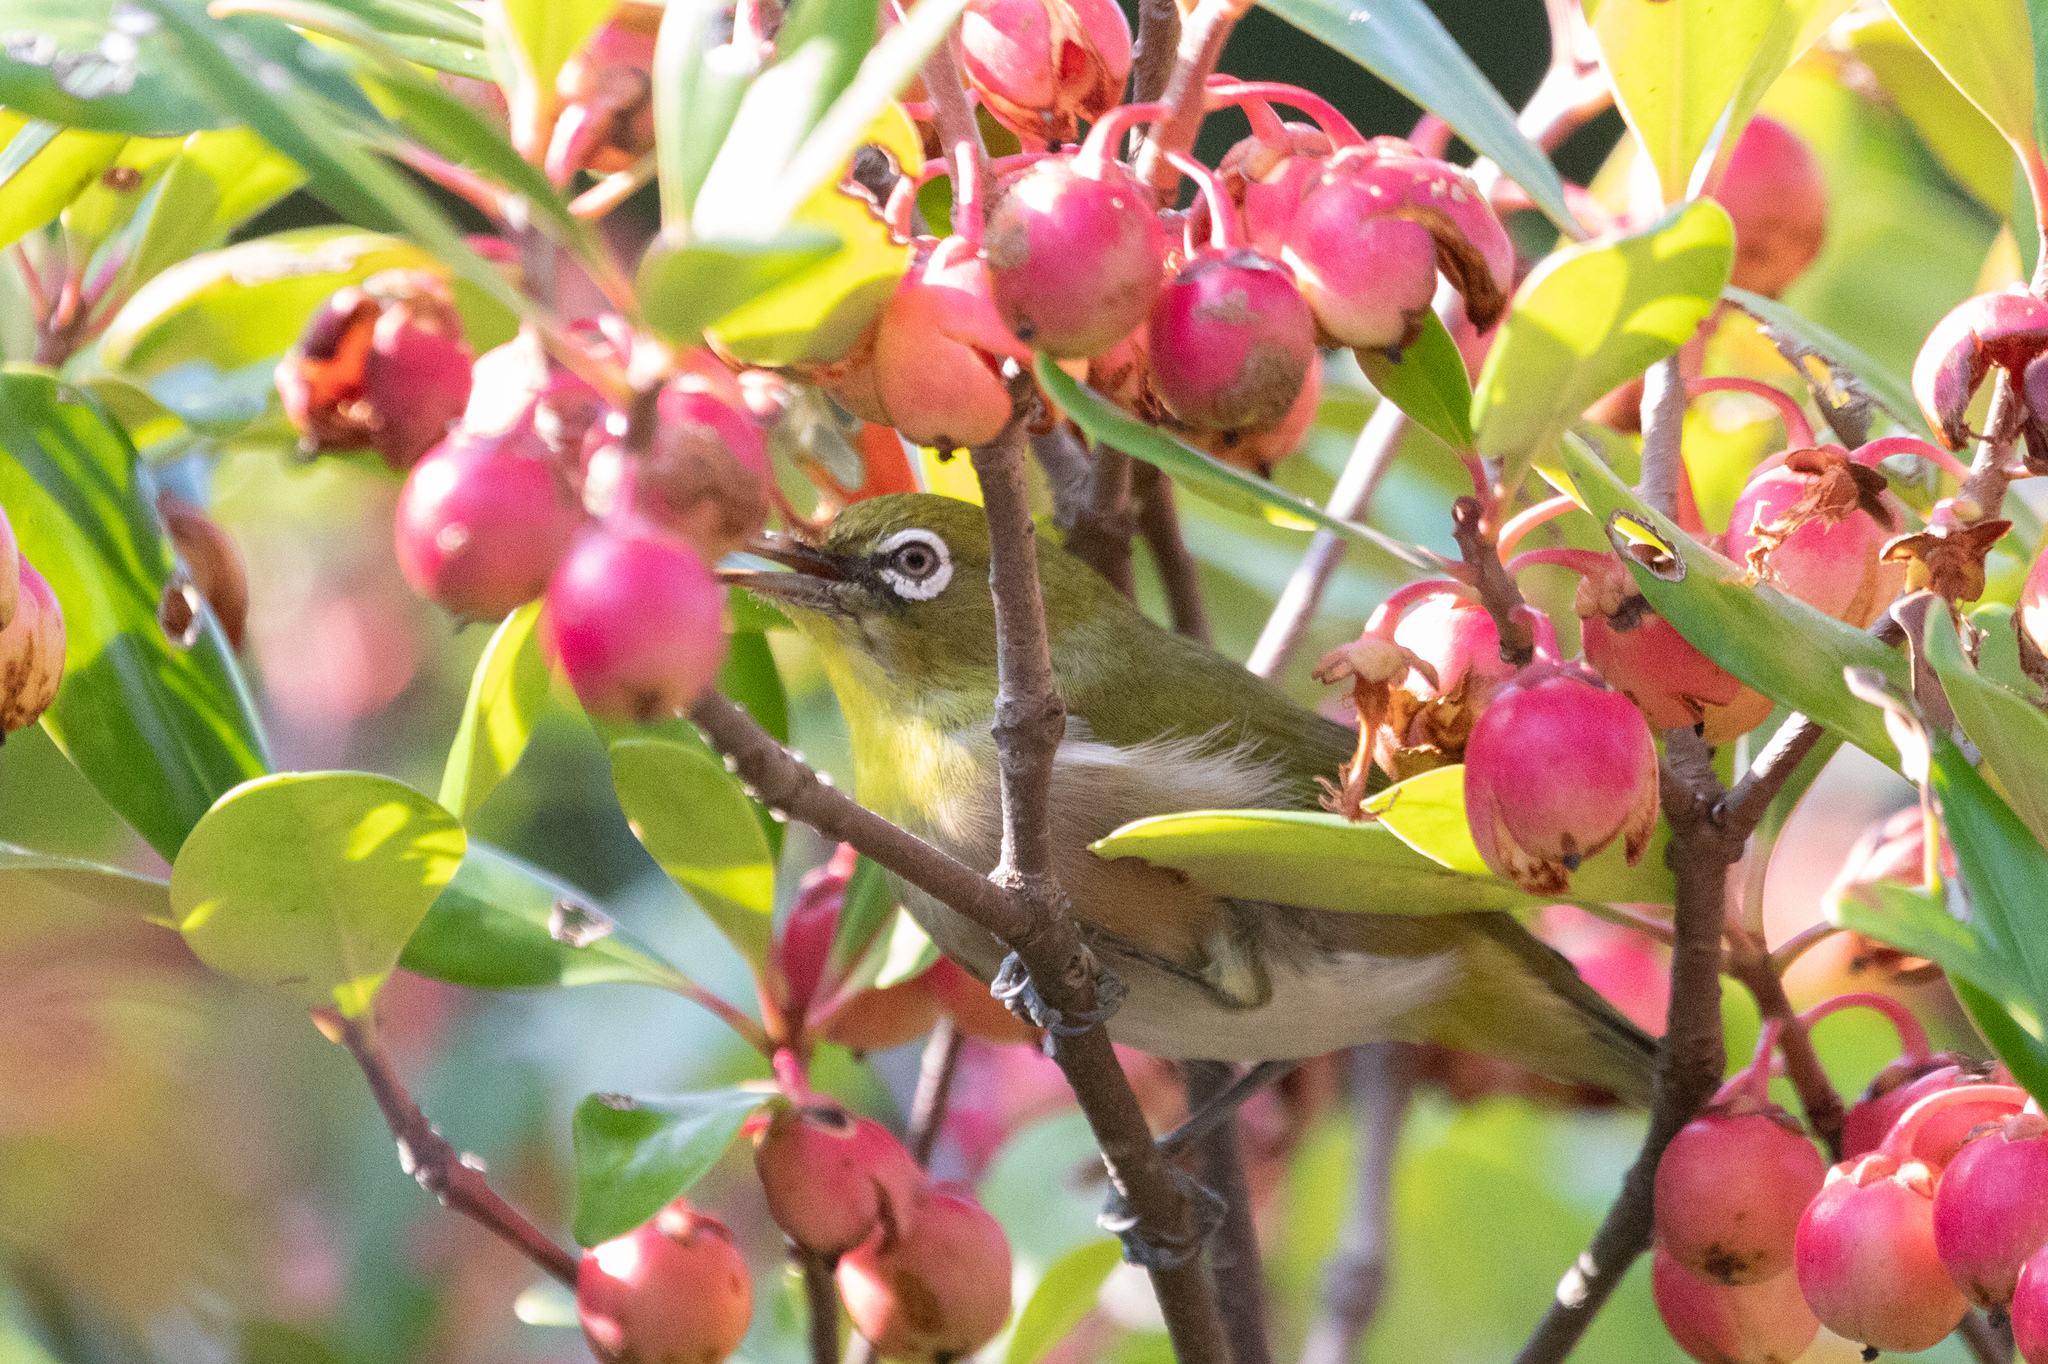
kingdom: Animalia
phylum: Chordata
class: Aves
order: Passeriformes
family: Zosteropidae
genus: Zosterops
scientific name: Zosterops japonicus
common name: Japanese white-eye
